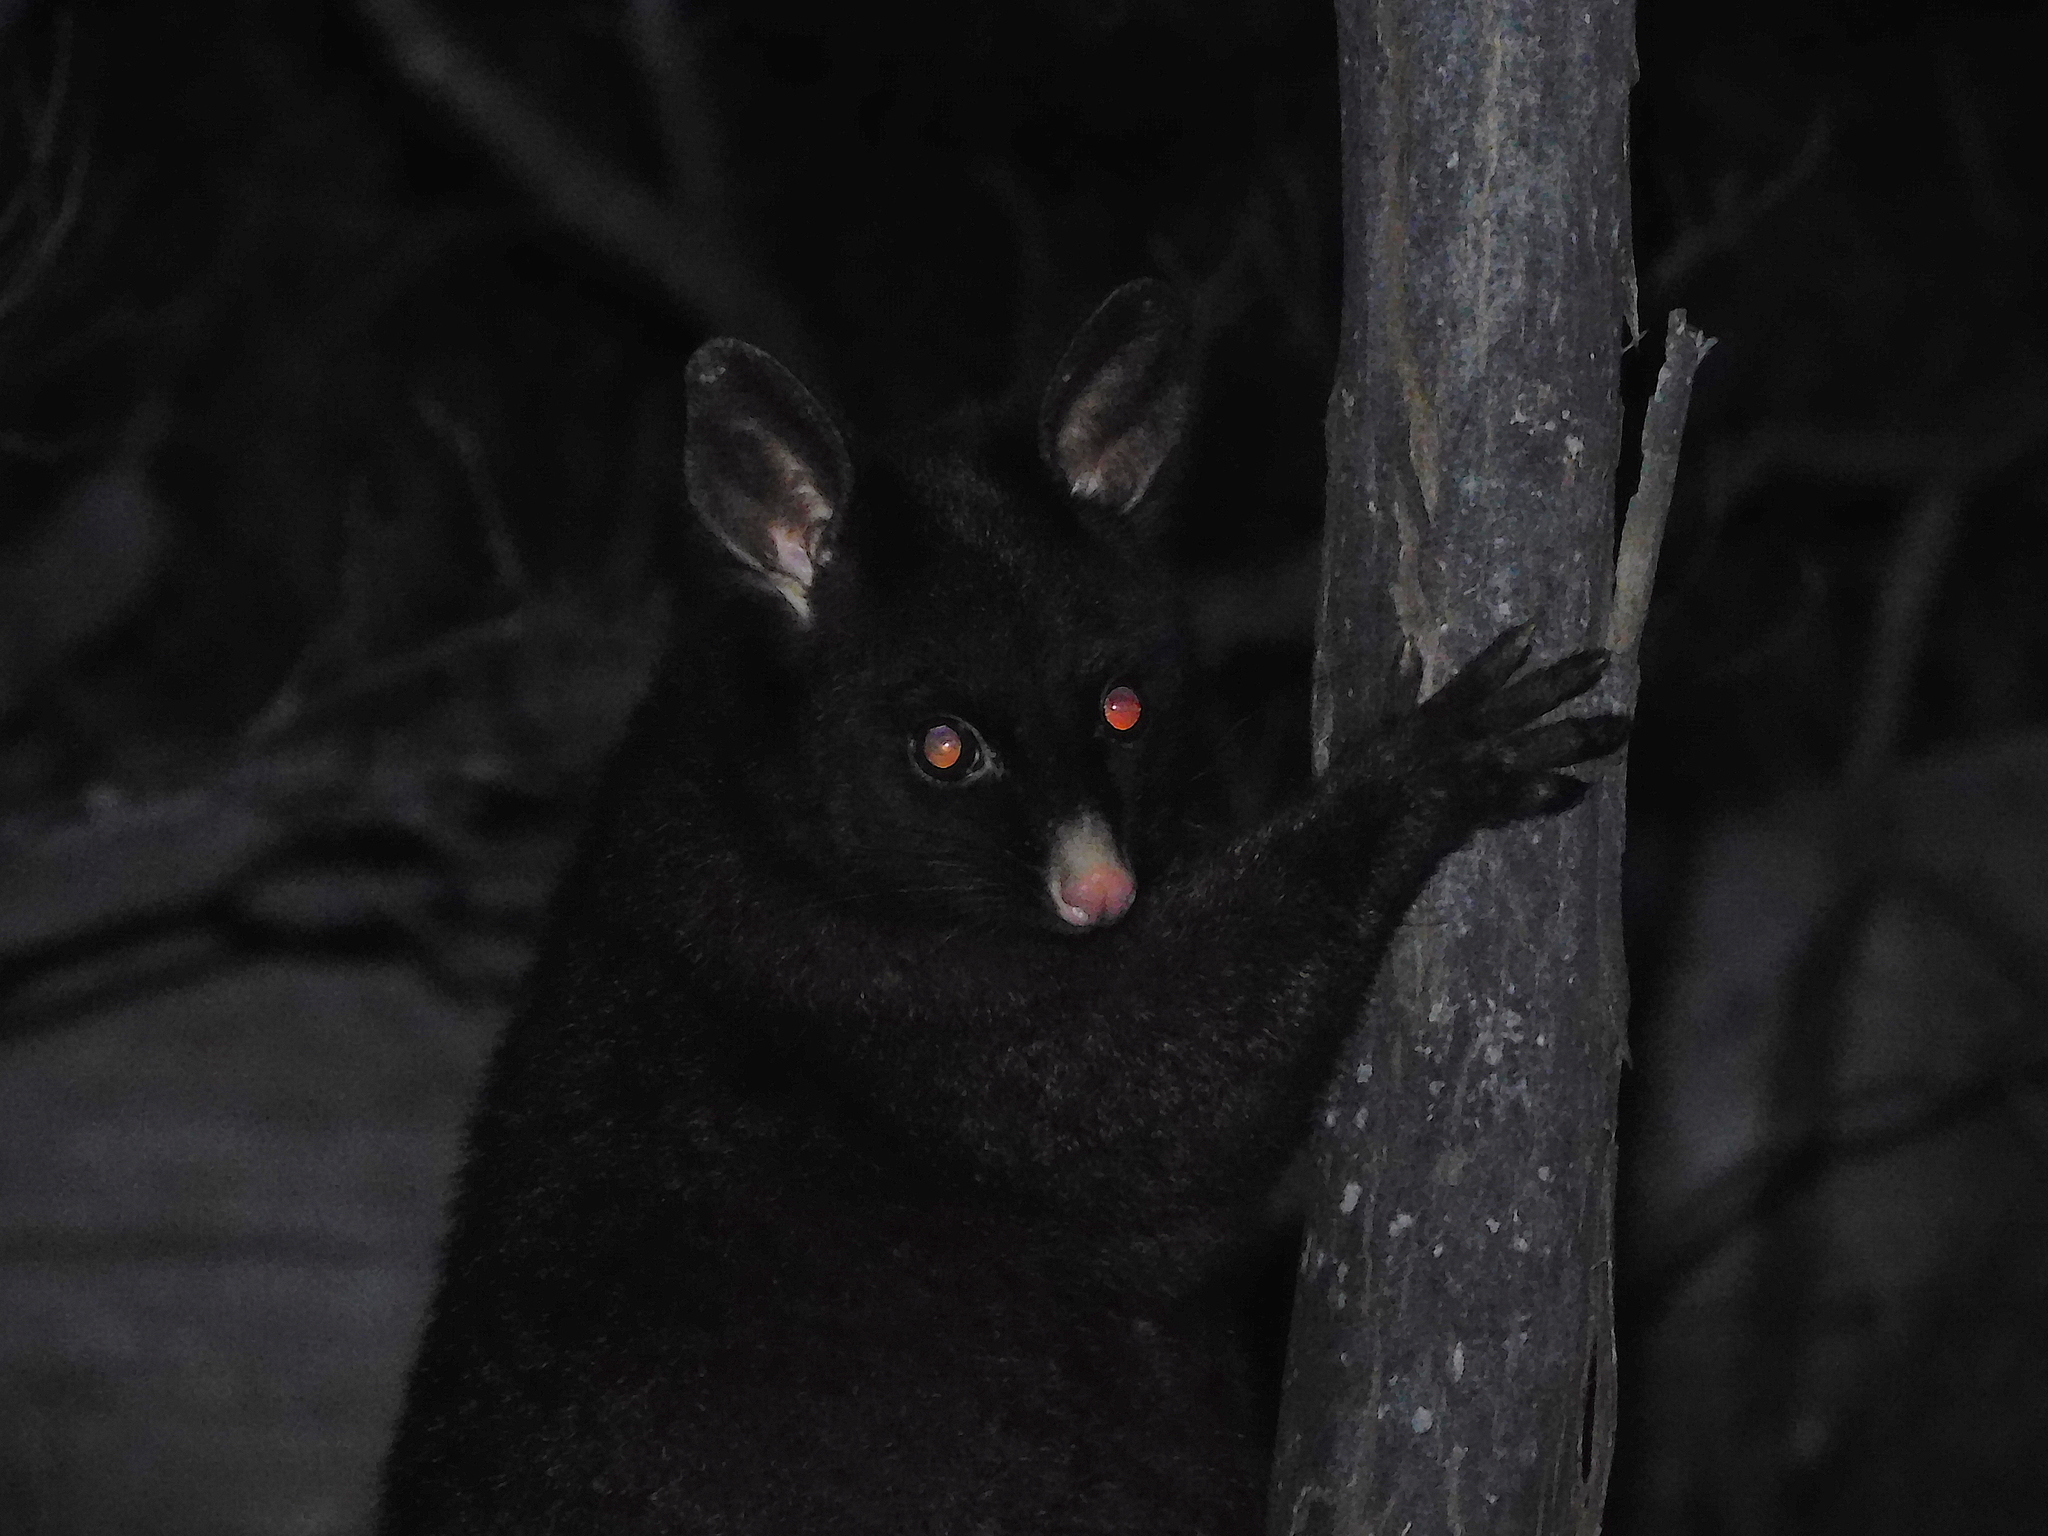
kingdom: Animalia
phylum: Chordata
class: Mammalia
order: Diprotodontia
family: Phalangeridae
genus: Trichosurus
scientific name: Trichosurus vulpecula
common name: Common brushtail
